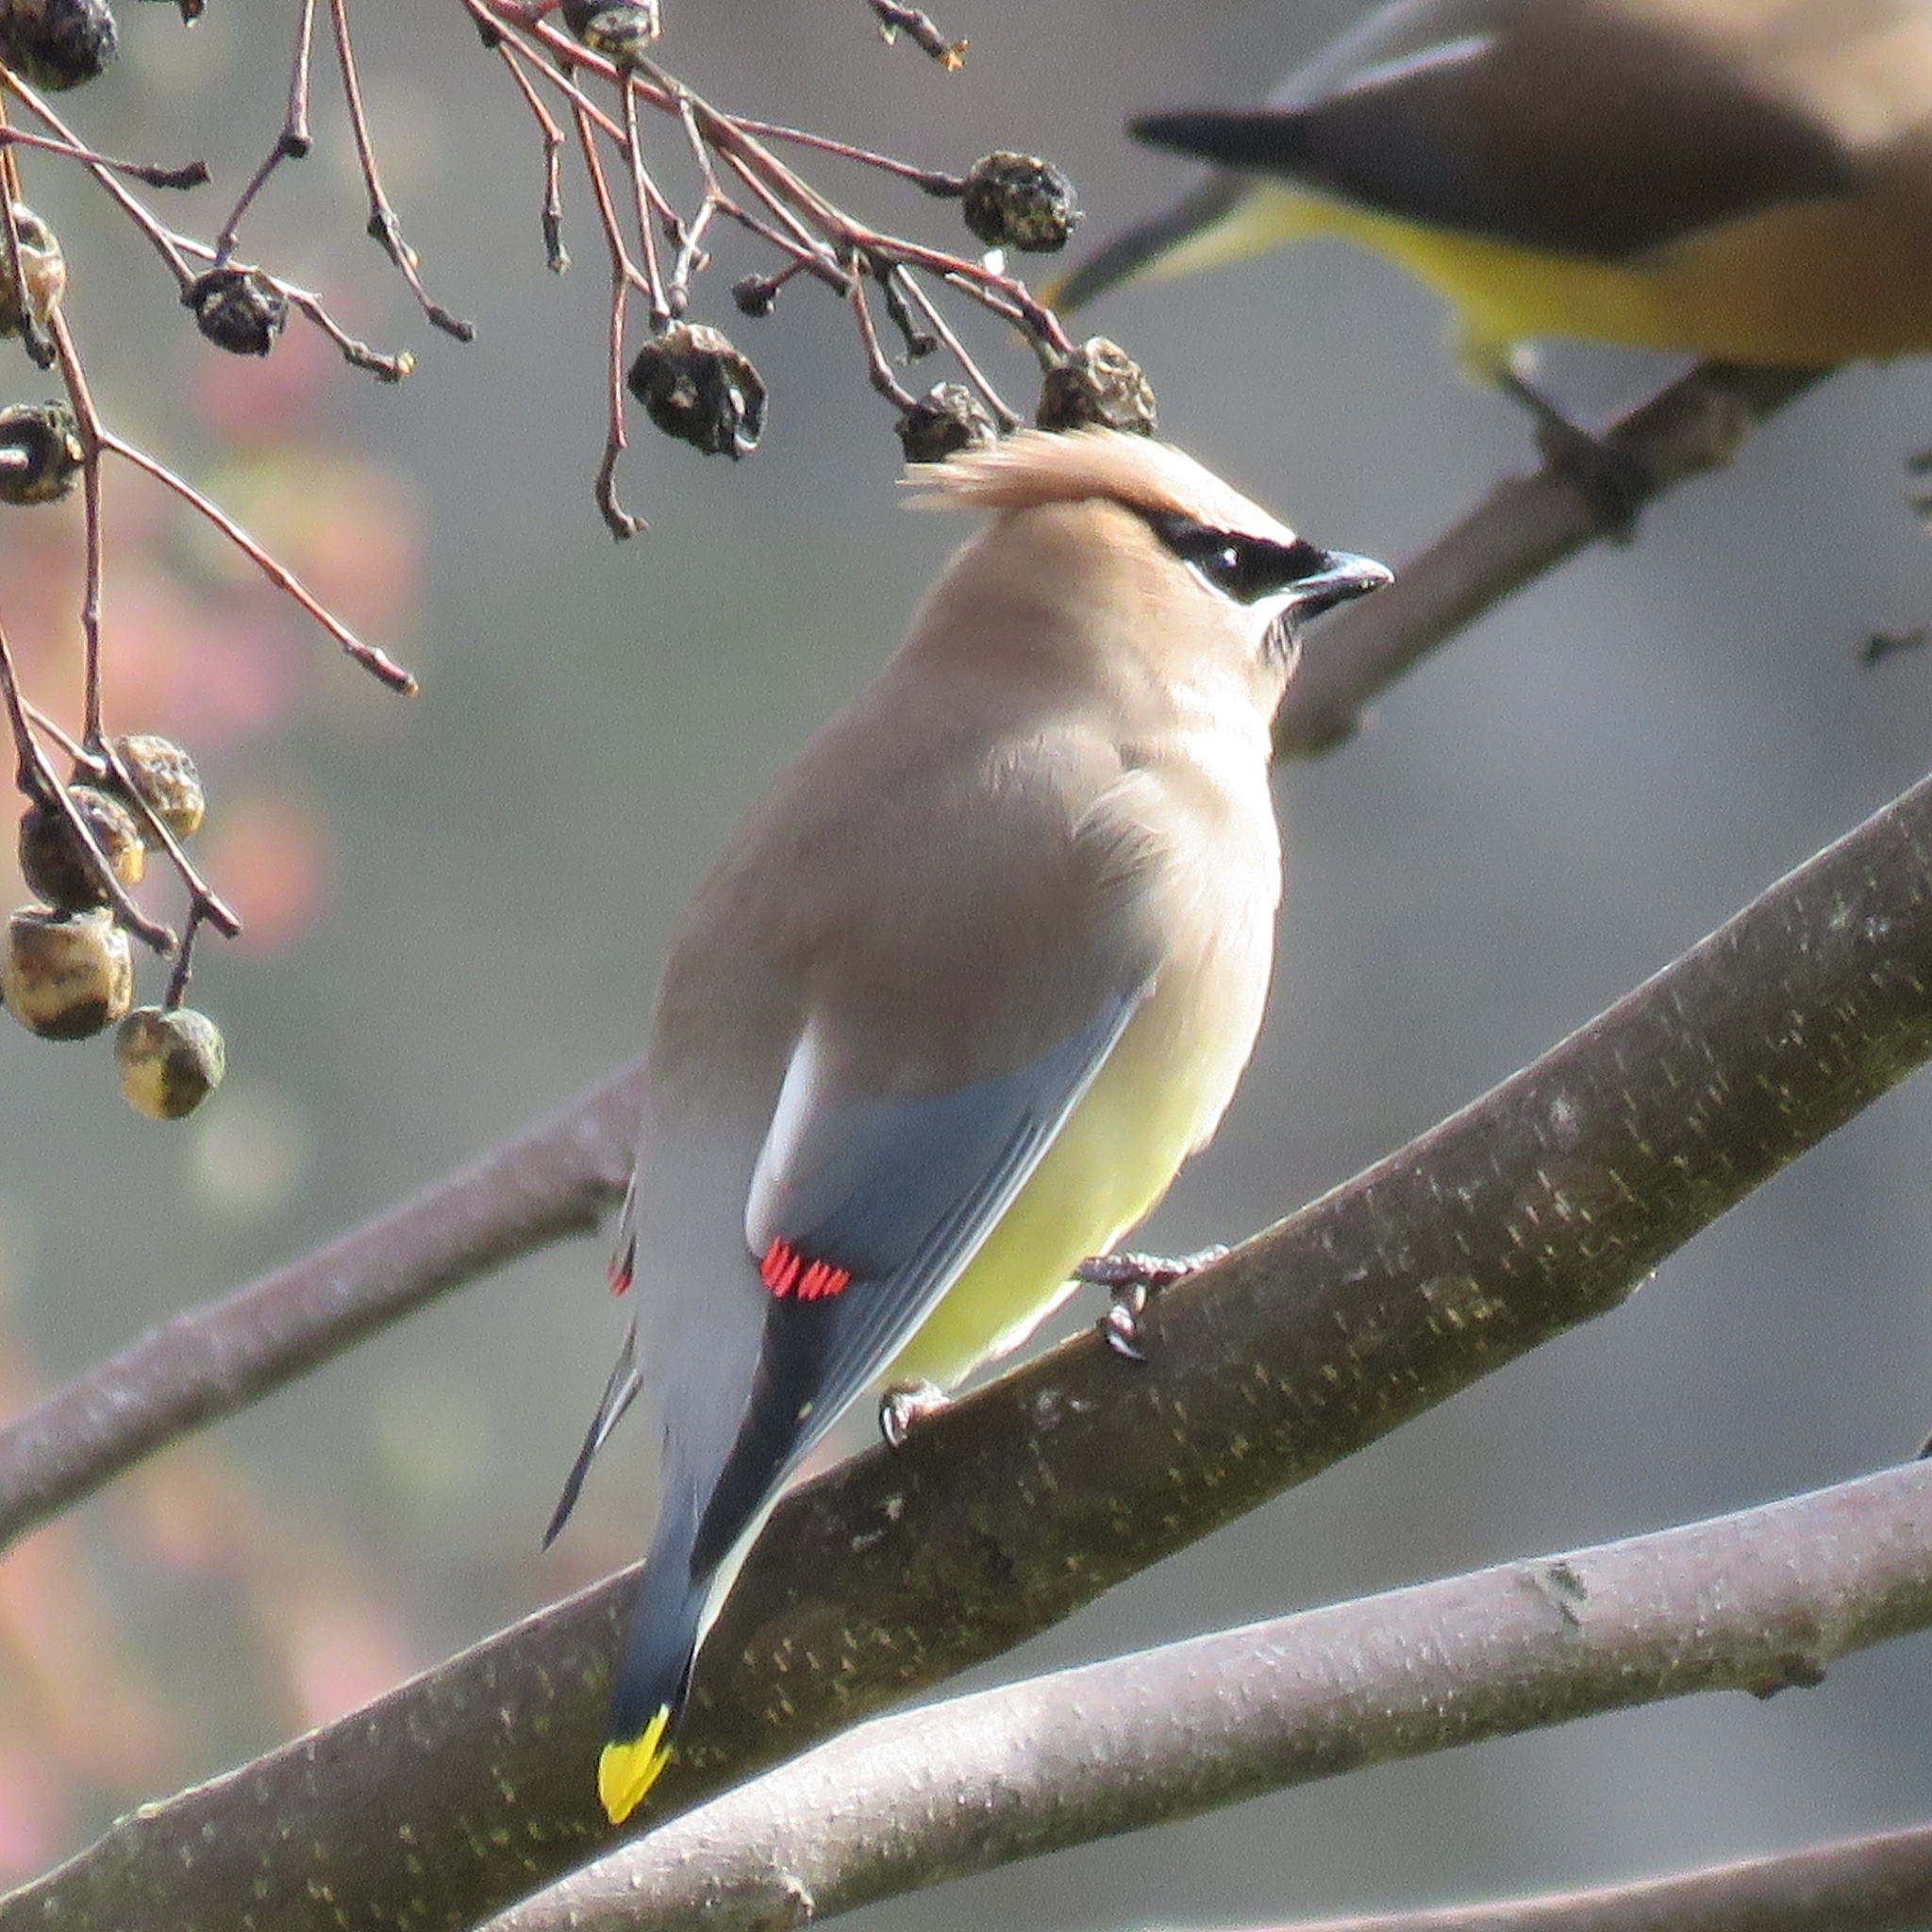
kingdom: Animalia
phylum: Chordata
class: Aves
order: Passeriformes
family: Bombycillidae
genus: Bombycilla
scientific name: Bombycilla cedrorum
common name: Cedar waxwing
